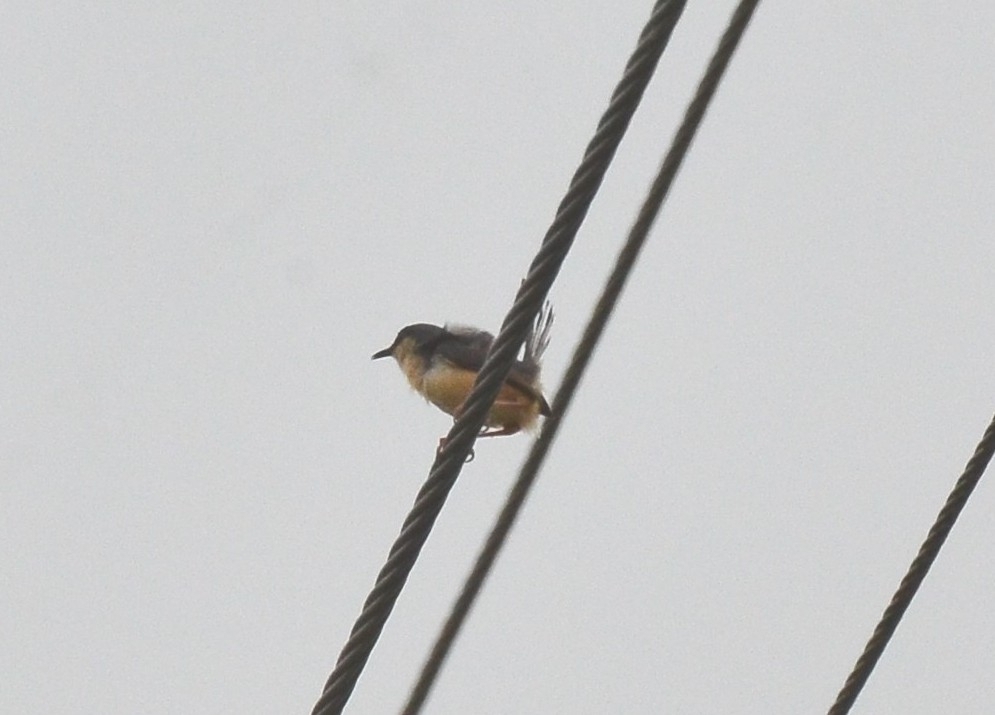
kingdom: Animalia
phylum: Chordata
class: Aves
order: Passeriformes
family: Cisticolidae
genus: Prinia
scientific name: Prinia socialis
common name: Ashy prinia
